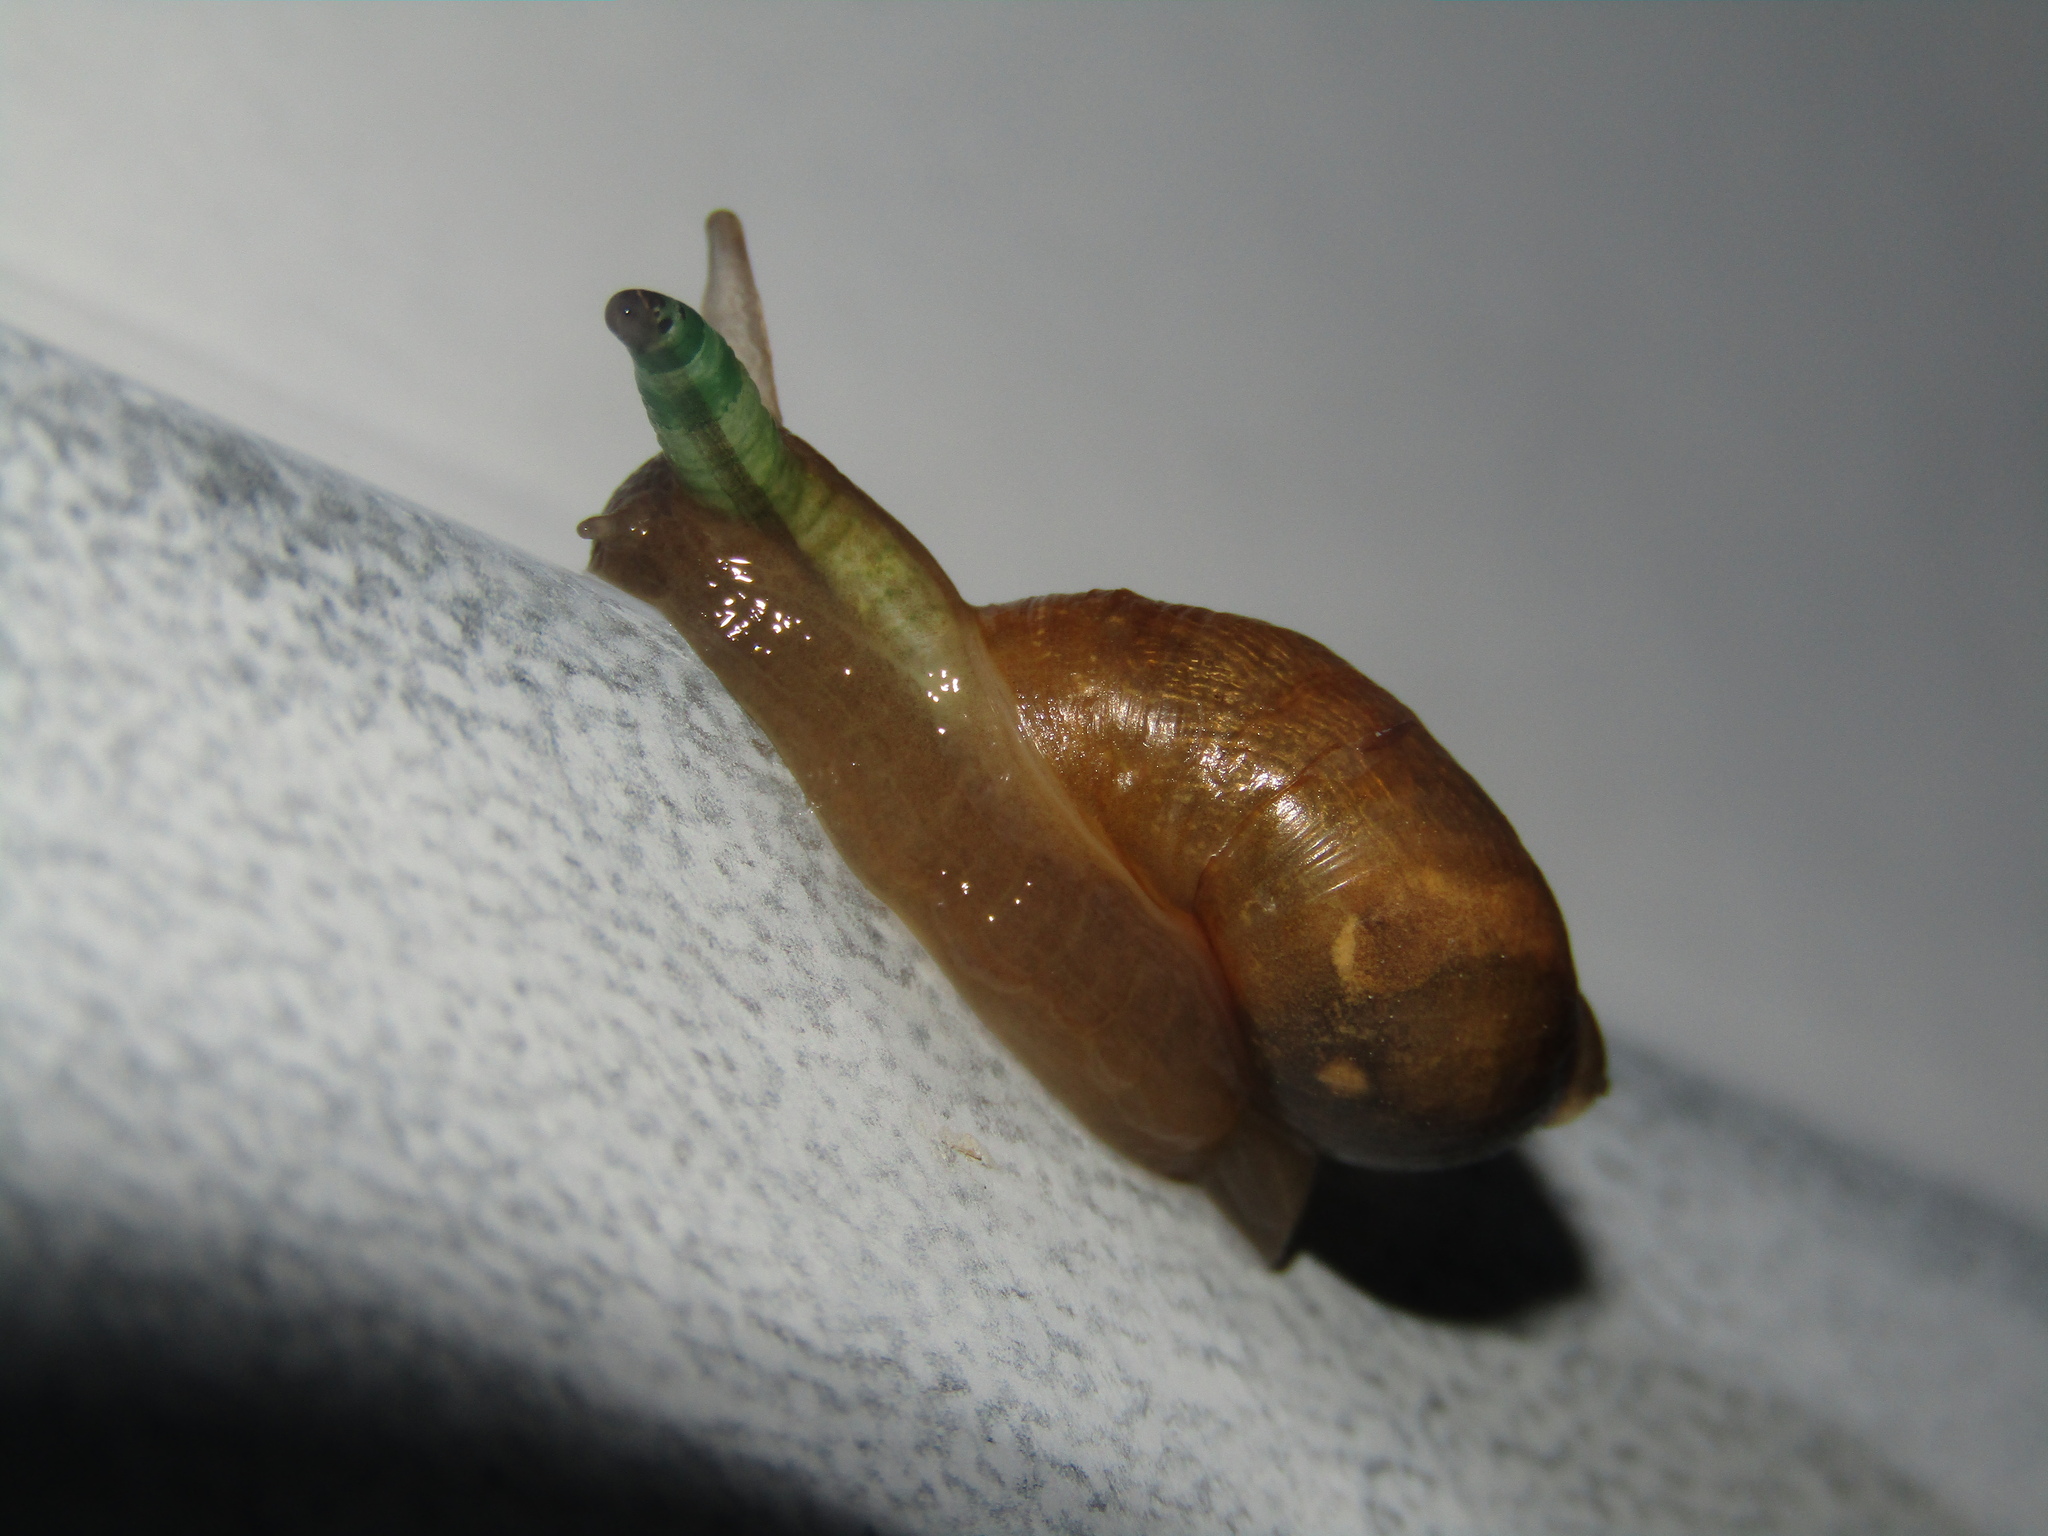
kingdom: Animalia
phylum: Mollusca
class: Gastropoda
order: Stylommatophora
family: Succineidae
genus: Succinea
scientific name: Succinea putris
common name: European ambersnail
